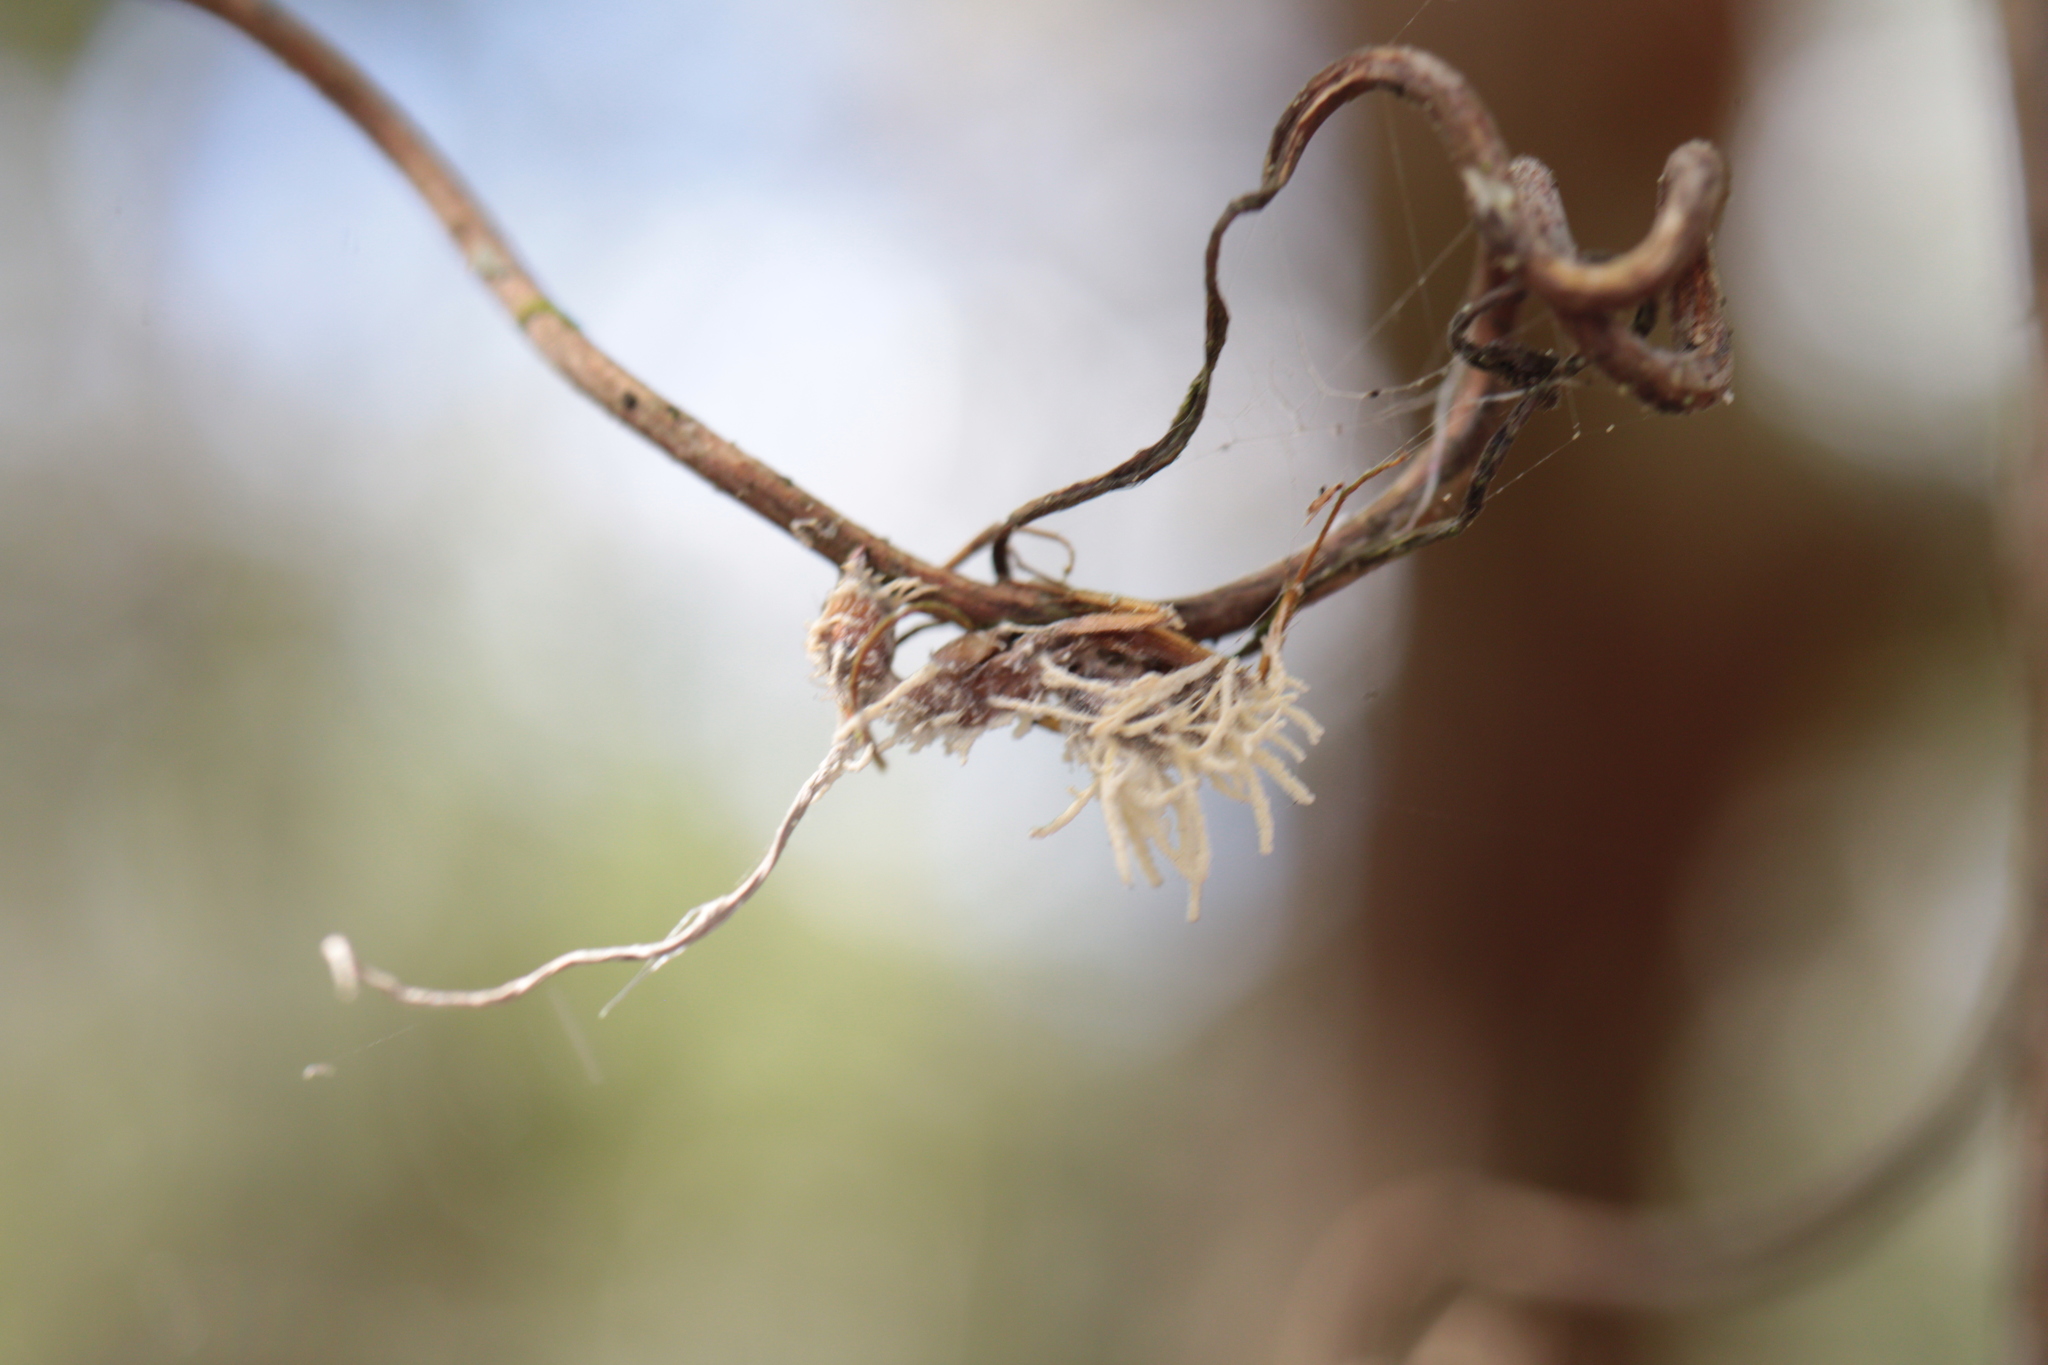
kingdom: Fungi
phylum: Ascomycota
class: Sordariomycetes
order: Hypocreales
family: Cordycipitaceae
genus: Niveomyces
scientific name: Niveomyces coronatus
